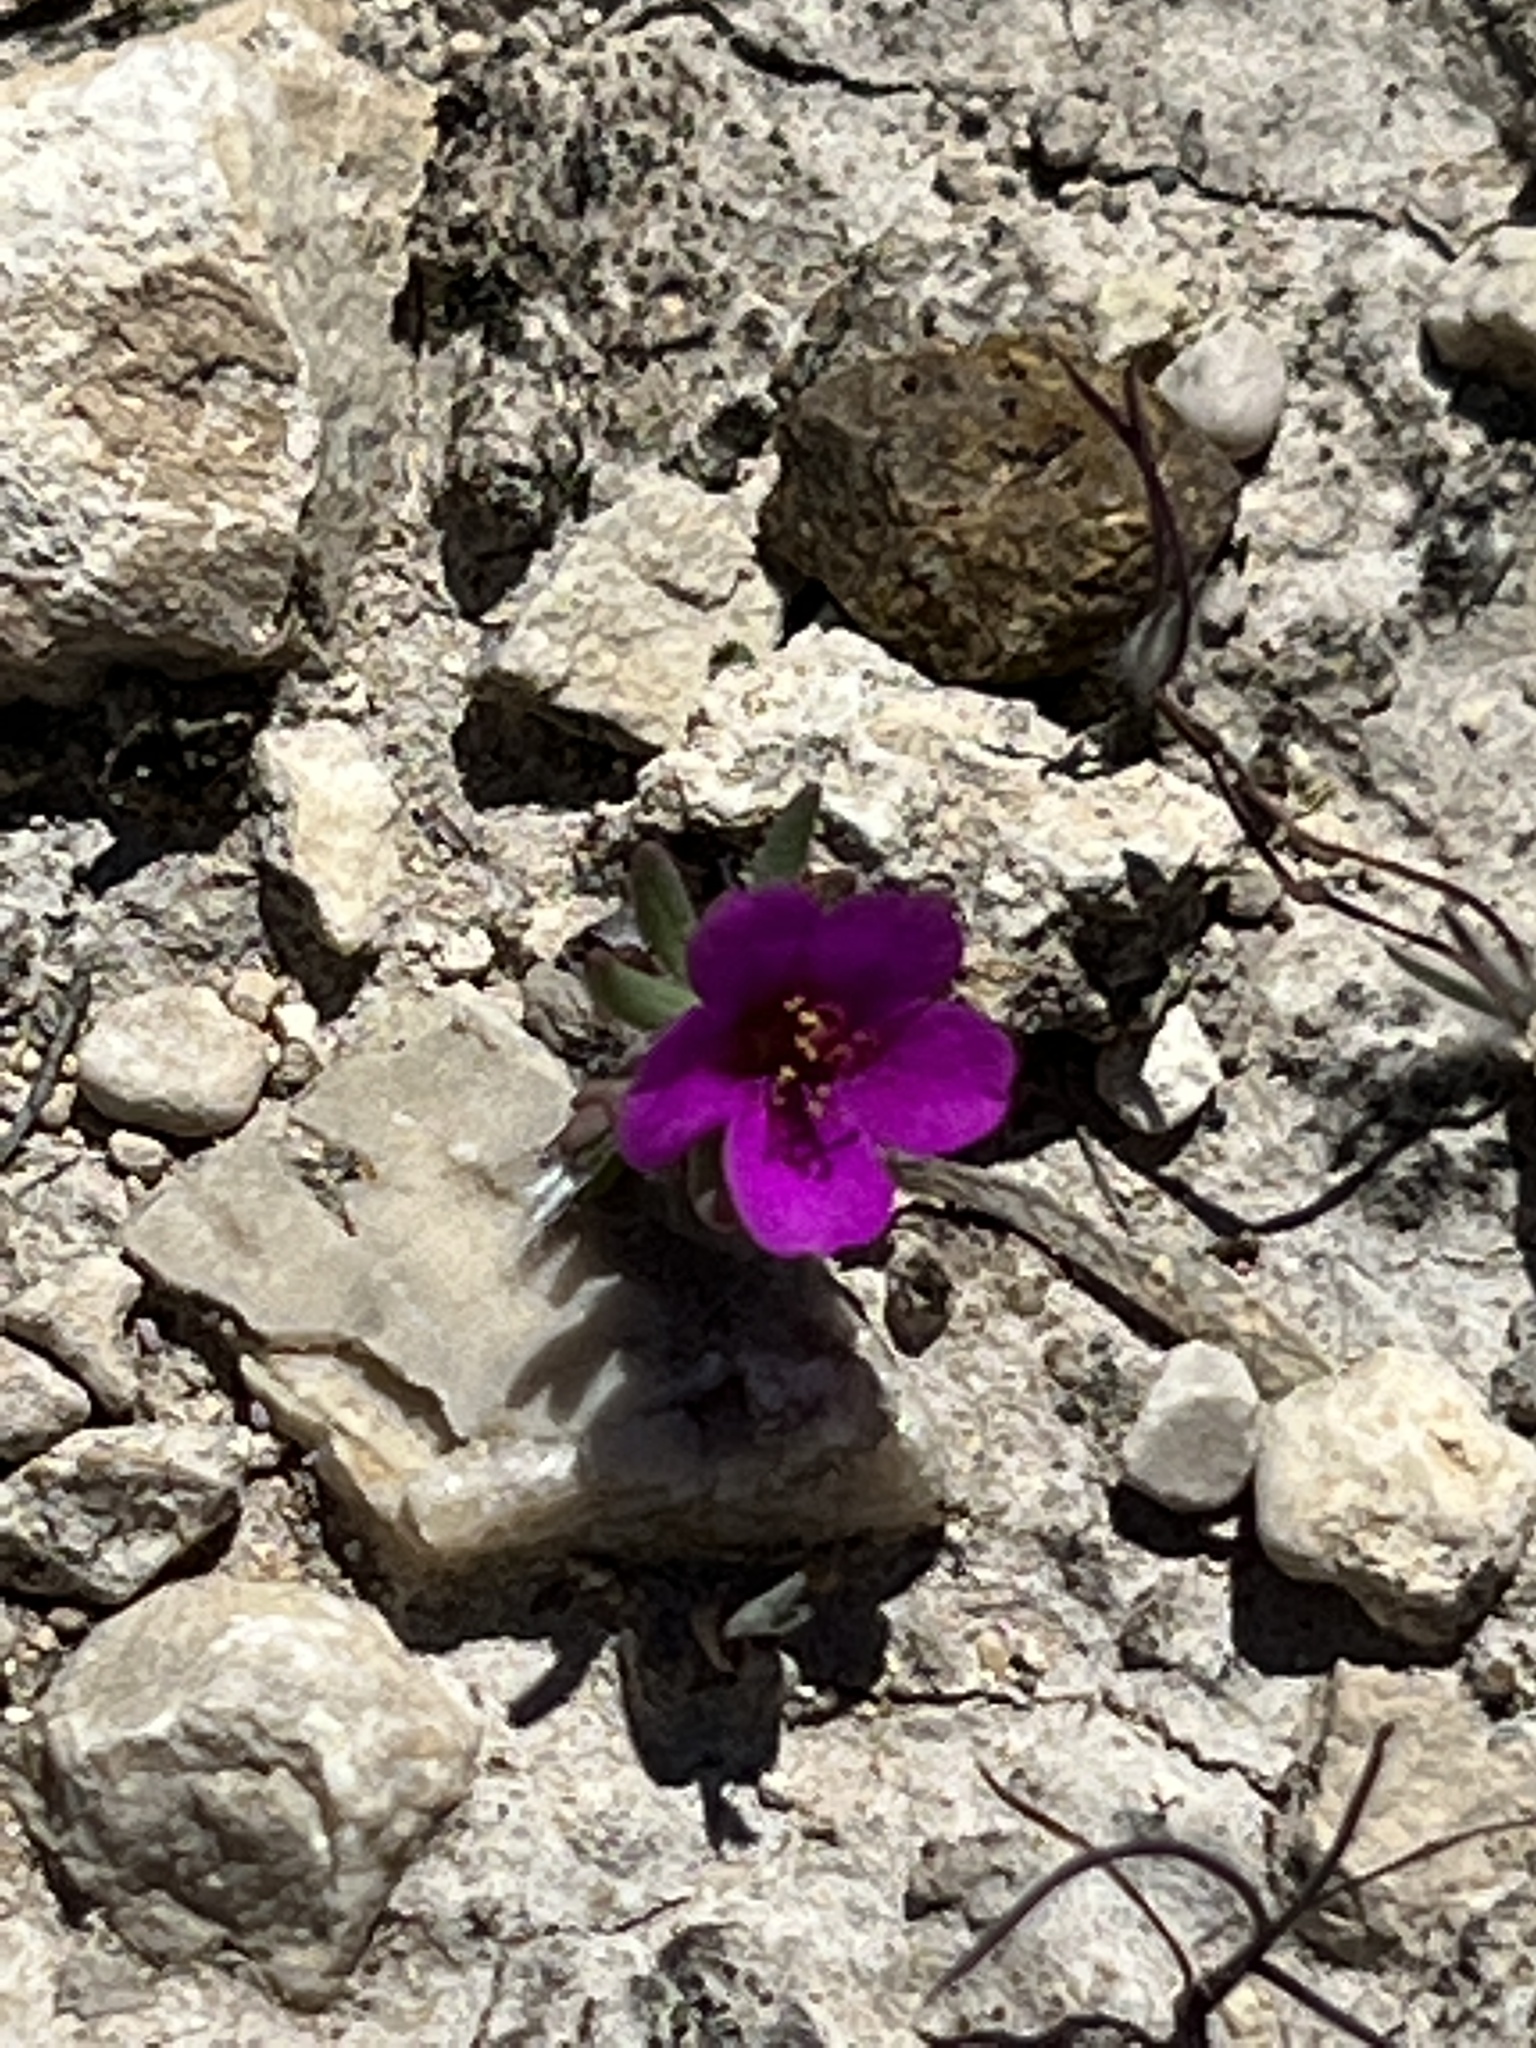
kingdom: Plantae
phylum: Tracheophyta
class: Magnoliopsida
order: Caryophyllales
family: Portulacaceae
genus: Portulaca
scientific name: Portulaca pilosa
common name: Kiss me quick
